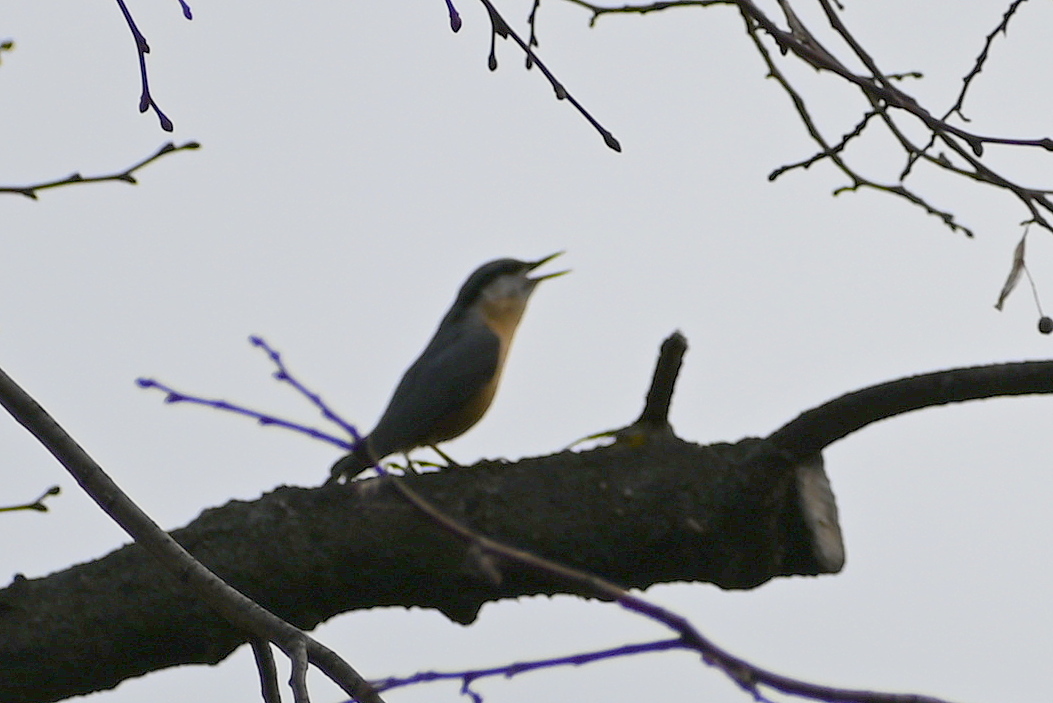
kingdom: Animalia
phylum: Chordata
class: Aves
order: Passeriformes
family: Sittidae
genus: Sitta
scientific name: Sitta europaea
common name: Eurasian nuthatch
